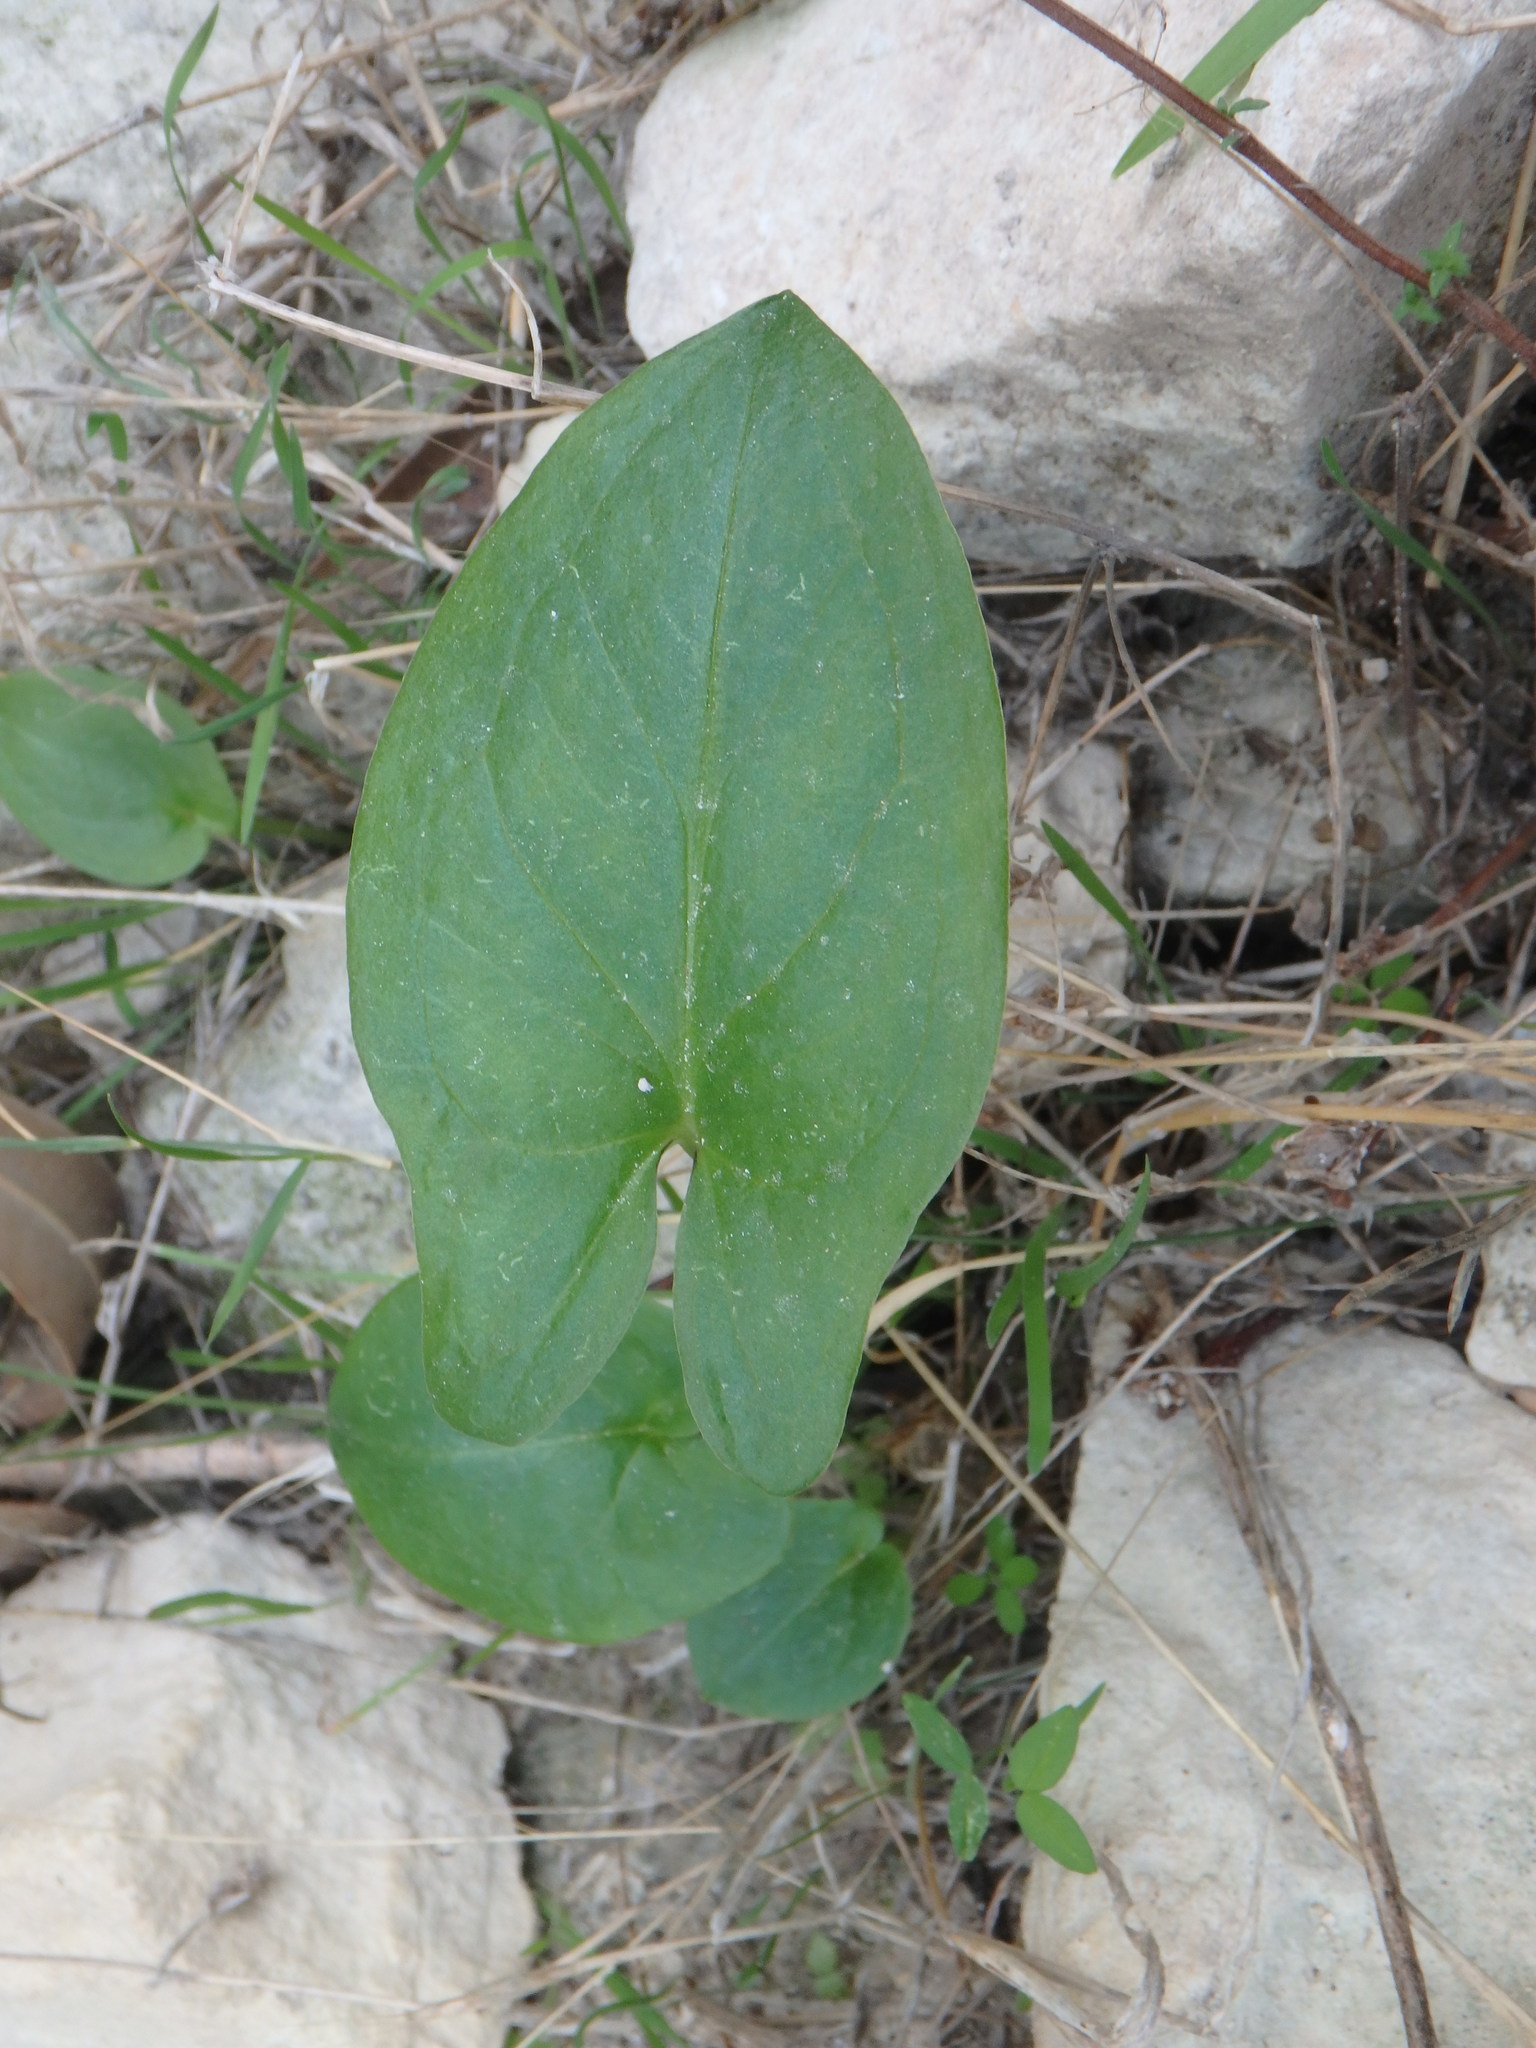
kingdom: Plantae
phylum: Tracheophyta
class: Liliopsida
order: Alismatales
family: Araceae
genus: Arisarum
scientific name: Arisarum vulgare
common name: Common arisarum
